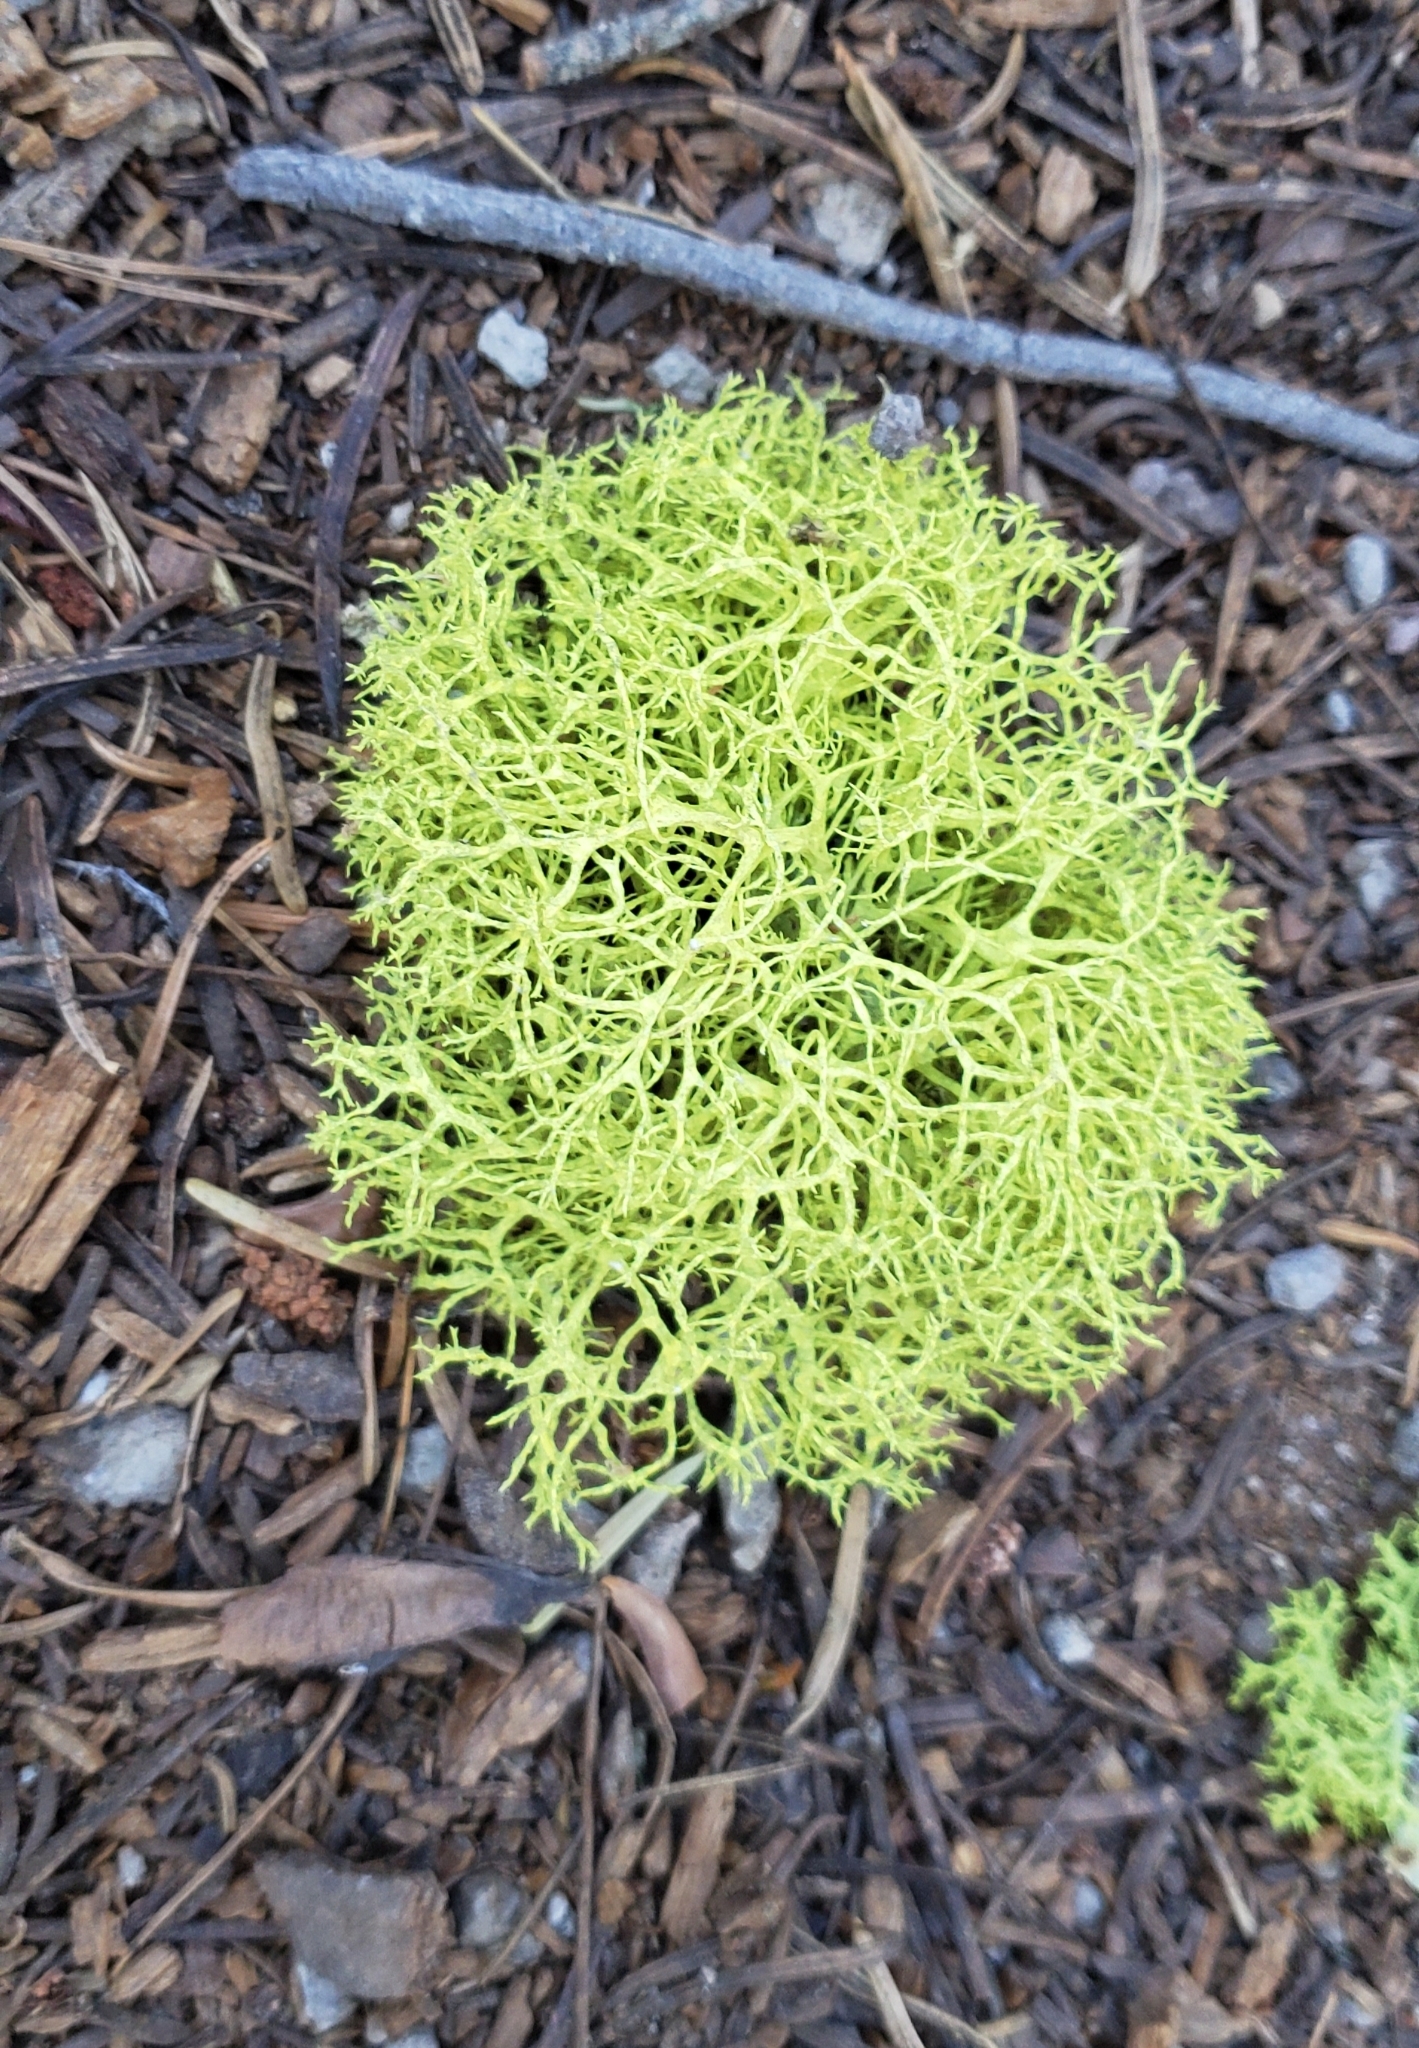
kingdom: Fungi
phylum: Ascomycota
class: Lecanoromycetes
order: Lecanorales
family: Parmeliaceae
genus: Letharia
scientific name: Letharia vulpina
